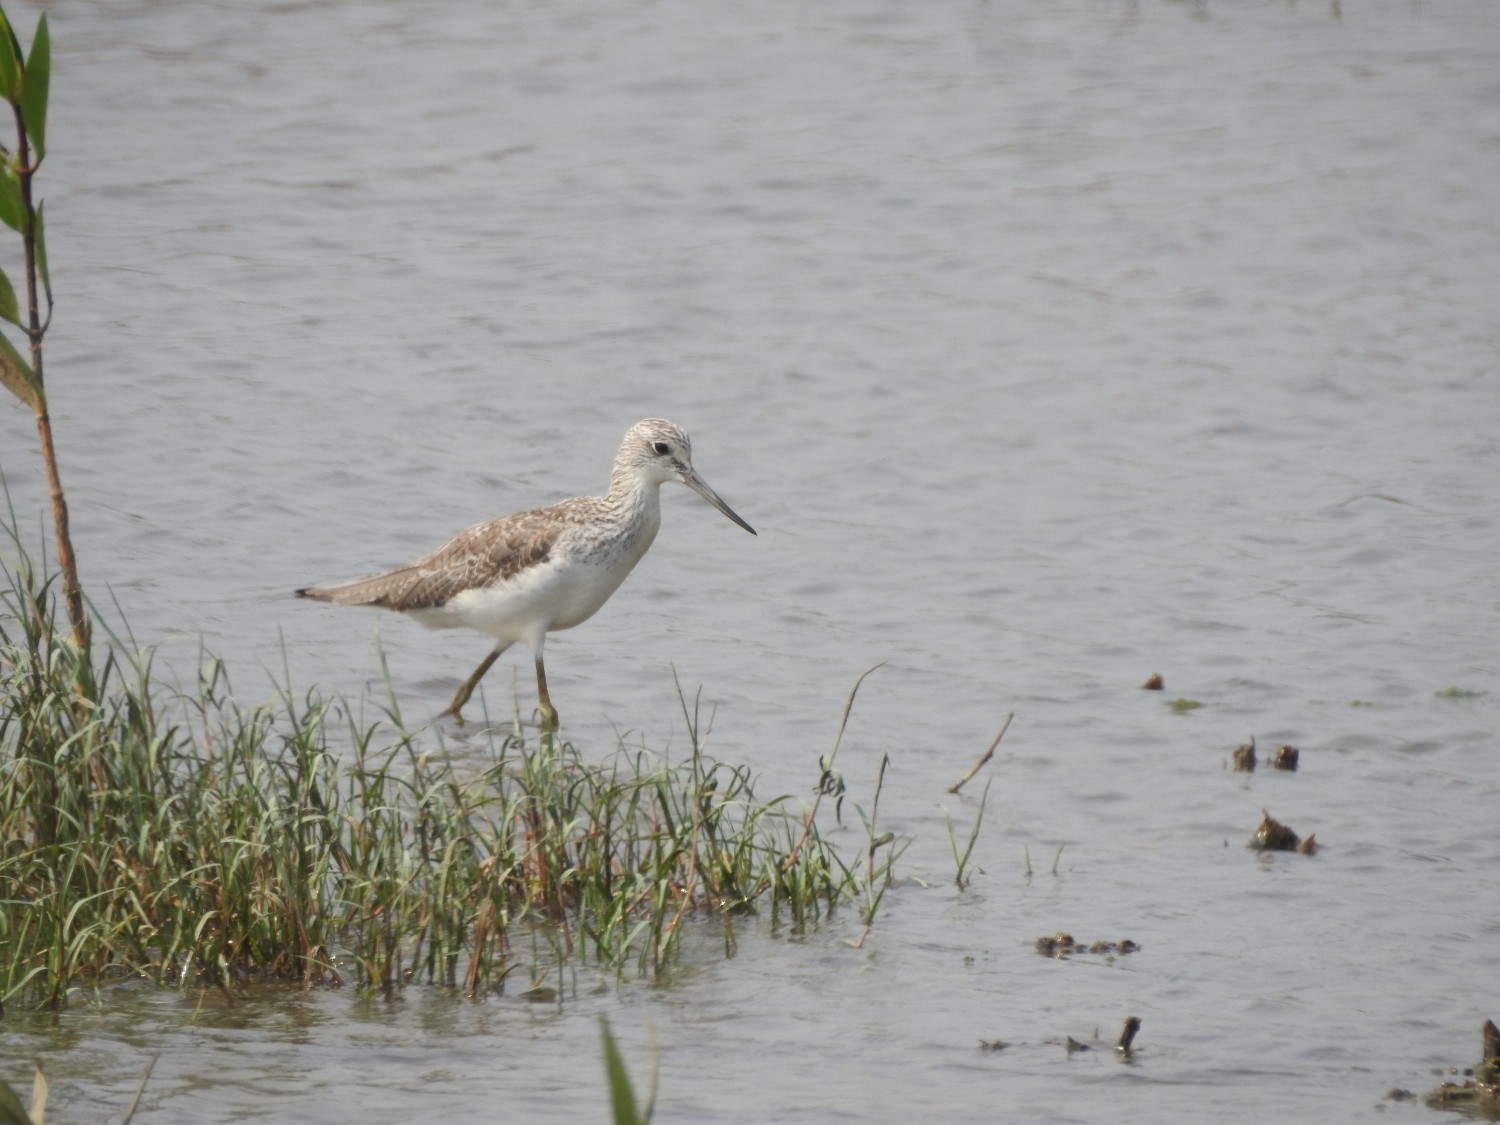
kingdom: Animalia
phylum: Chordata
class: Aves
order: Charadriiformes
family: Scolopacidae
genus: Tringa
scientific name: Tringa nebularia
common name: Common greenshank
